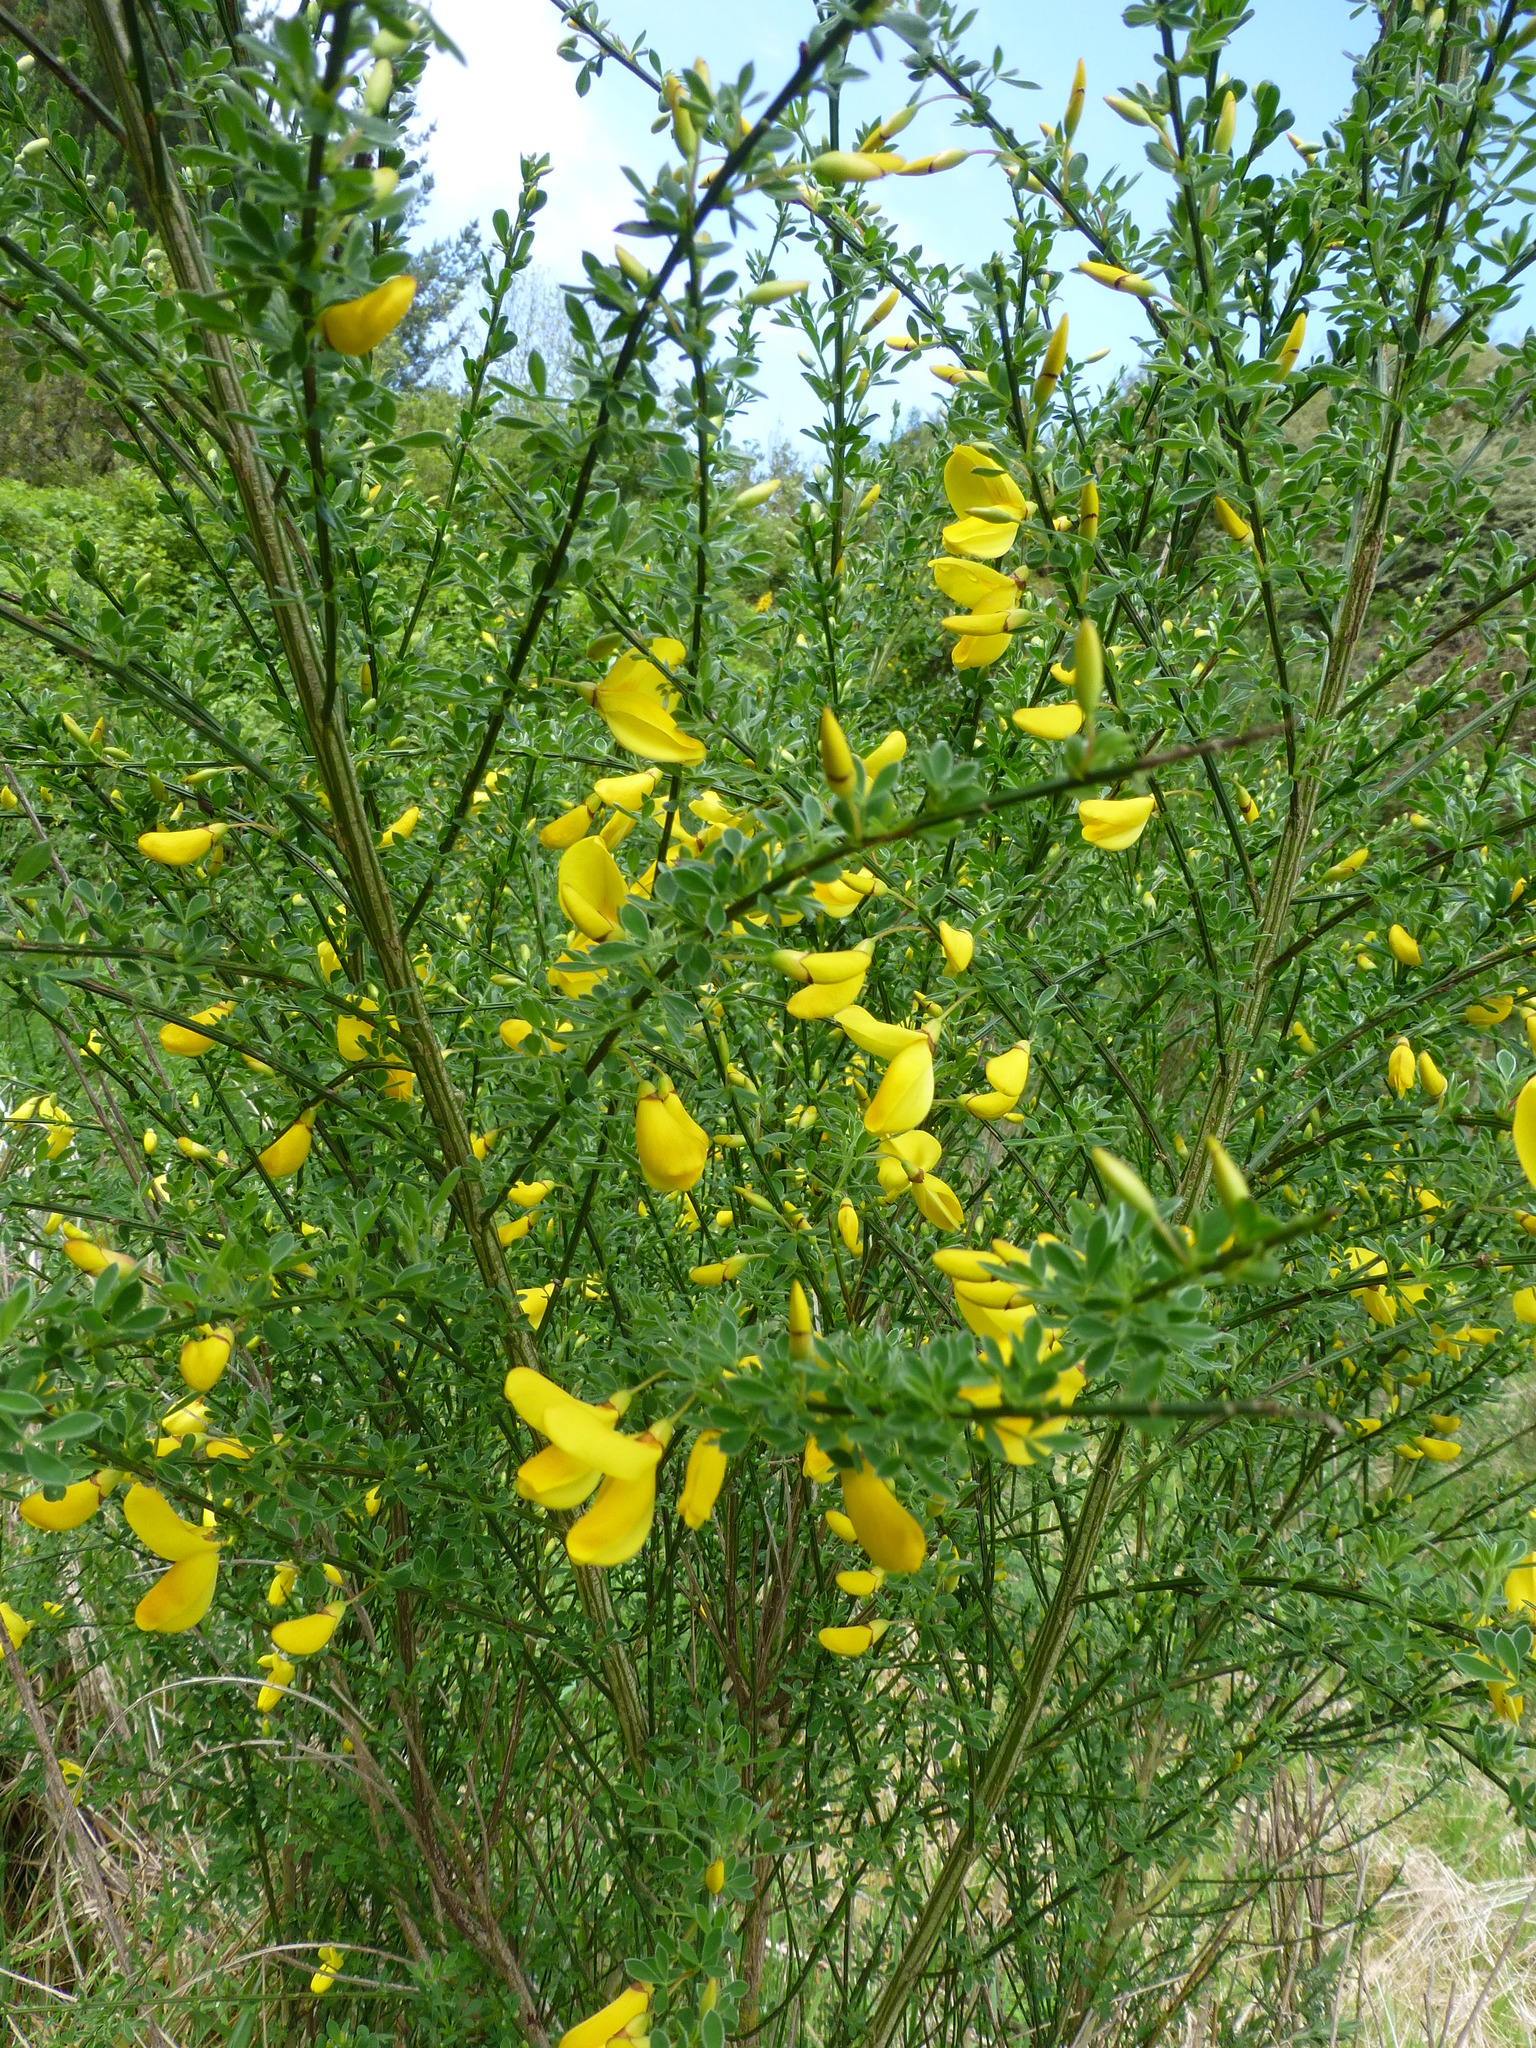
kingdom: Plantae
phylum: Tracheophyta
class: Magnoliopsida
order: Fabales
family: Fabaceae
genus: Cytisus
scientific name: Cytisus scoparius
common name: Scotch broom
